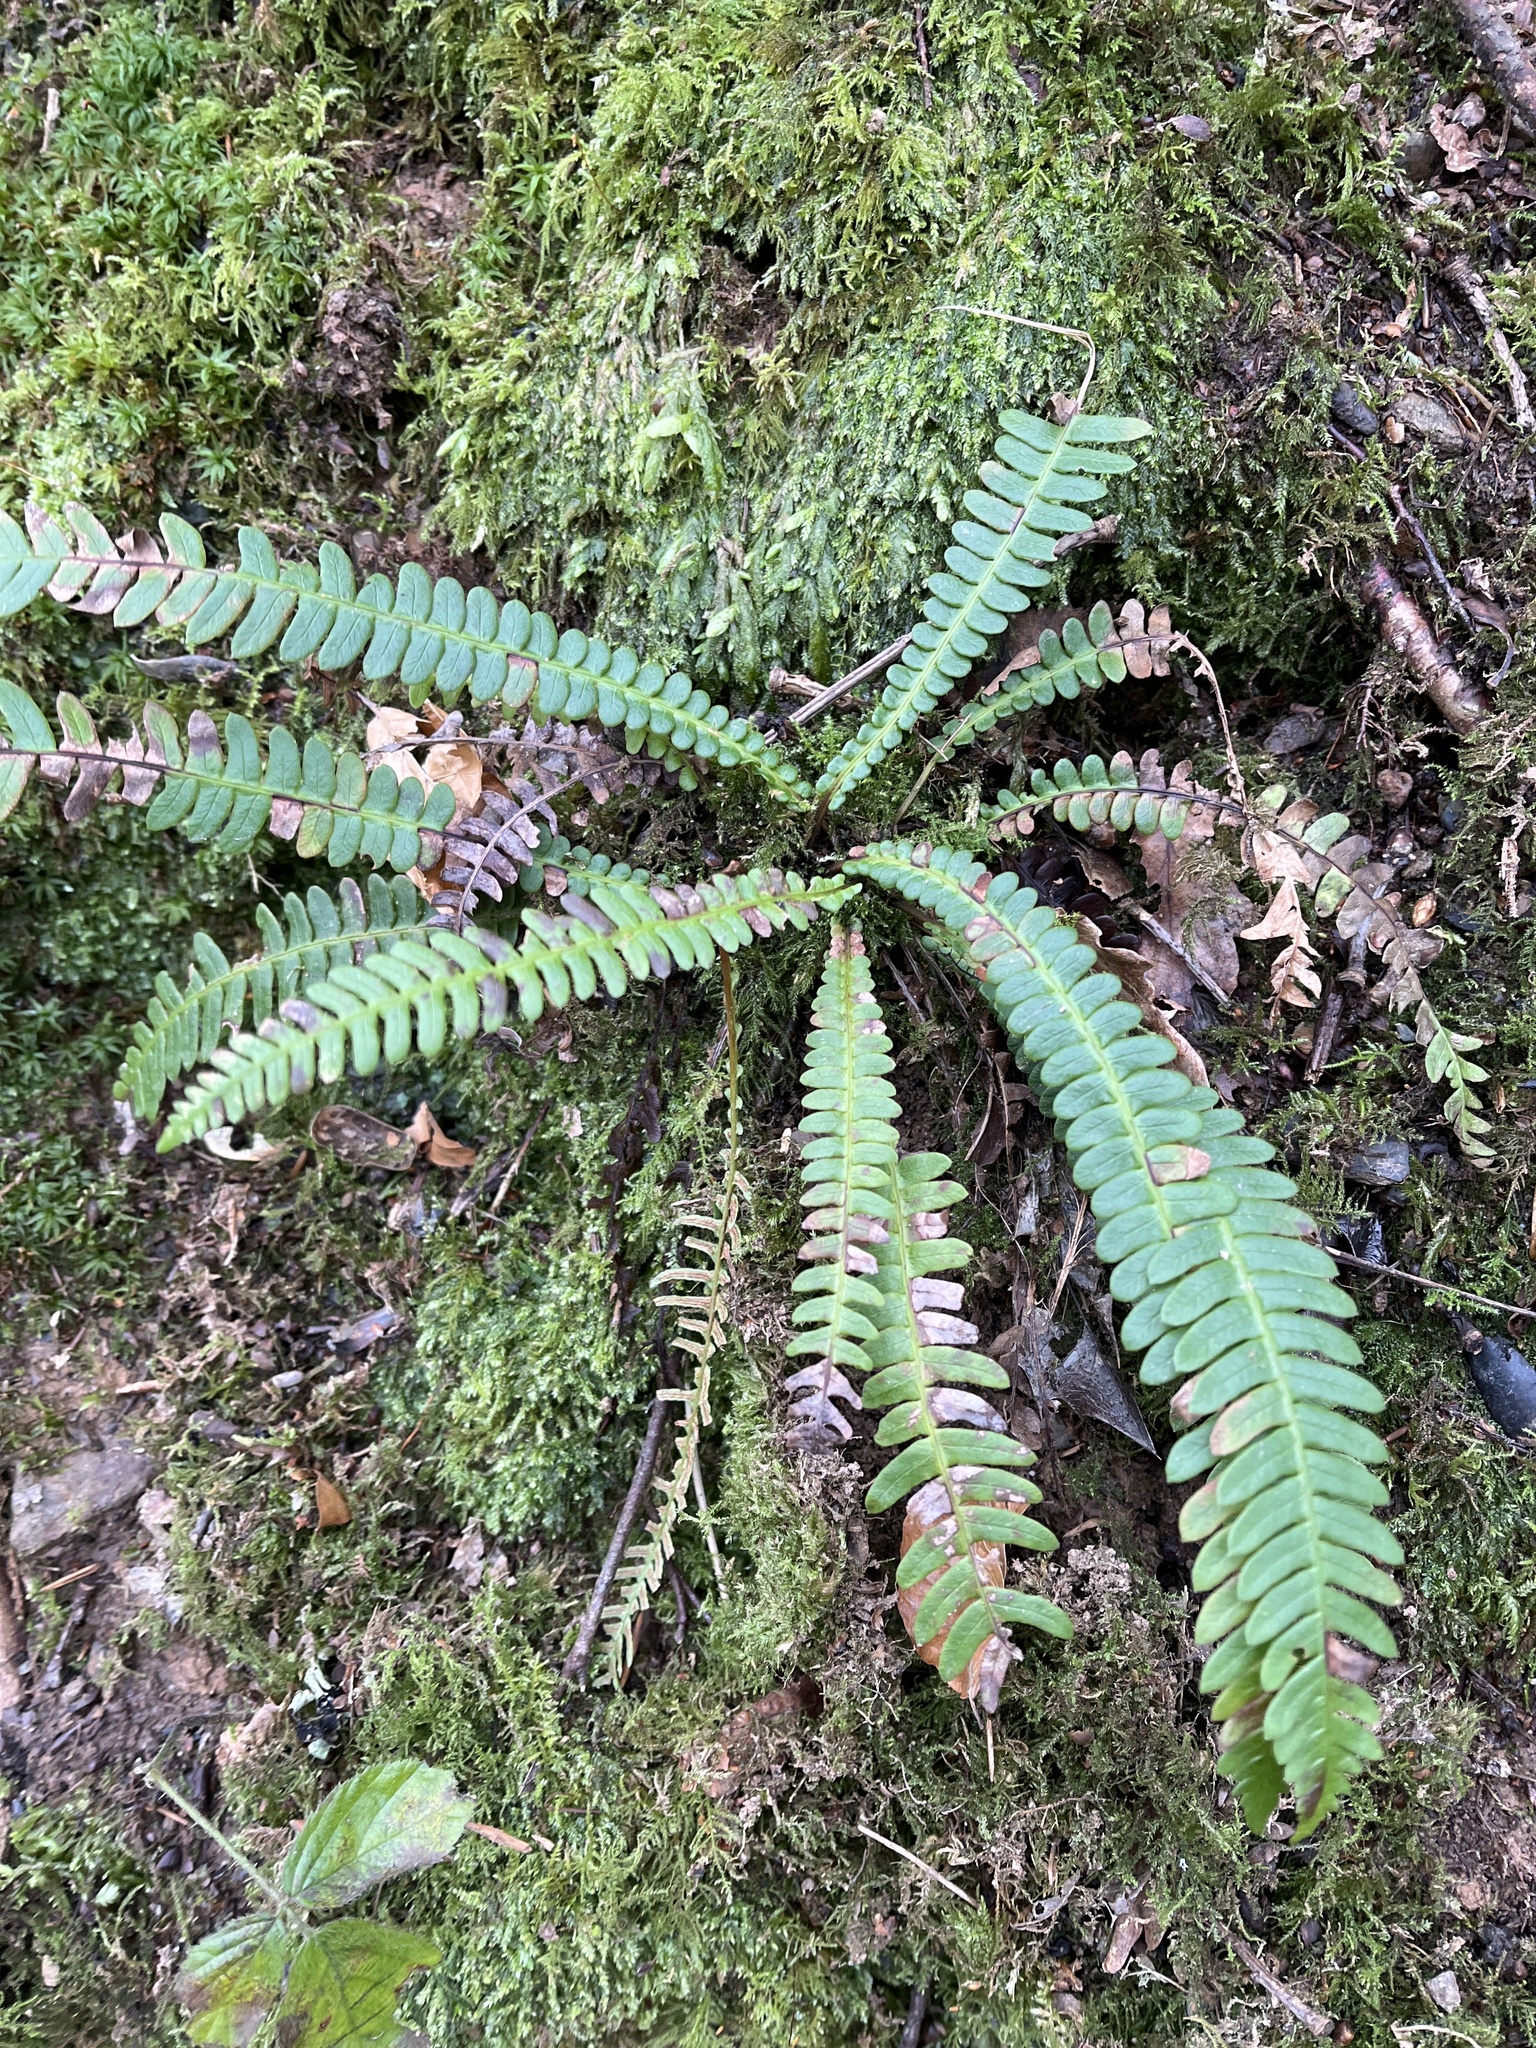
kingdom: Plantae
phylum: Tracheophyta
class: Polypodiopsida
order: Polypodiales
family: Blechnaceae
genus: Struthiopteris
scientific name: Struthiopteris spicant
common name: Deer fern
